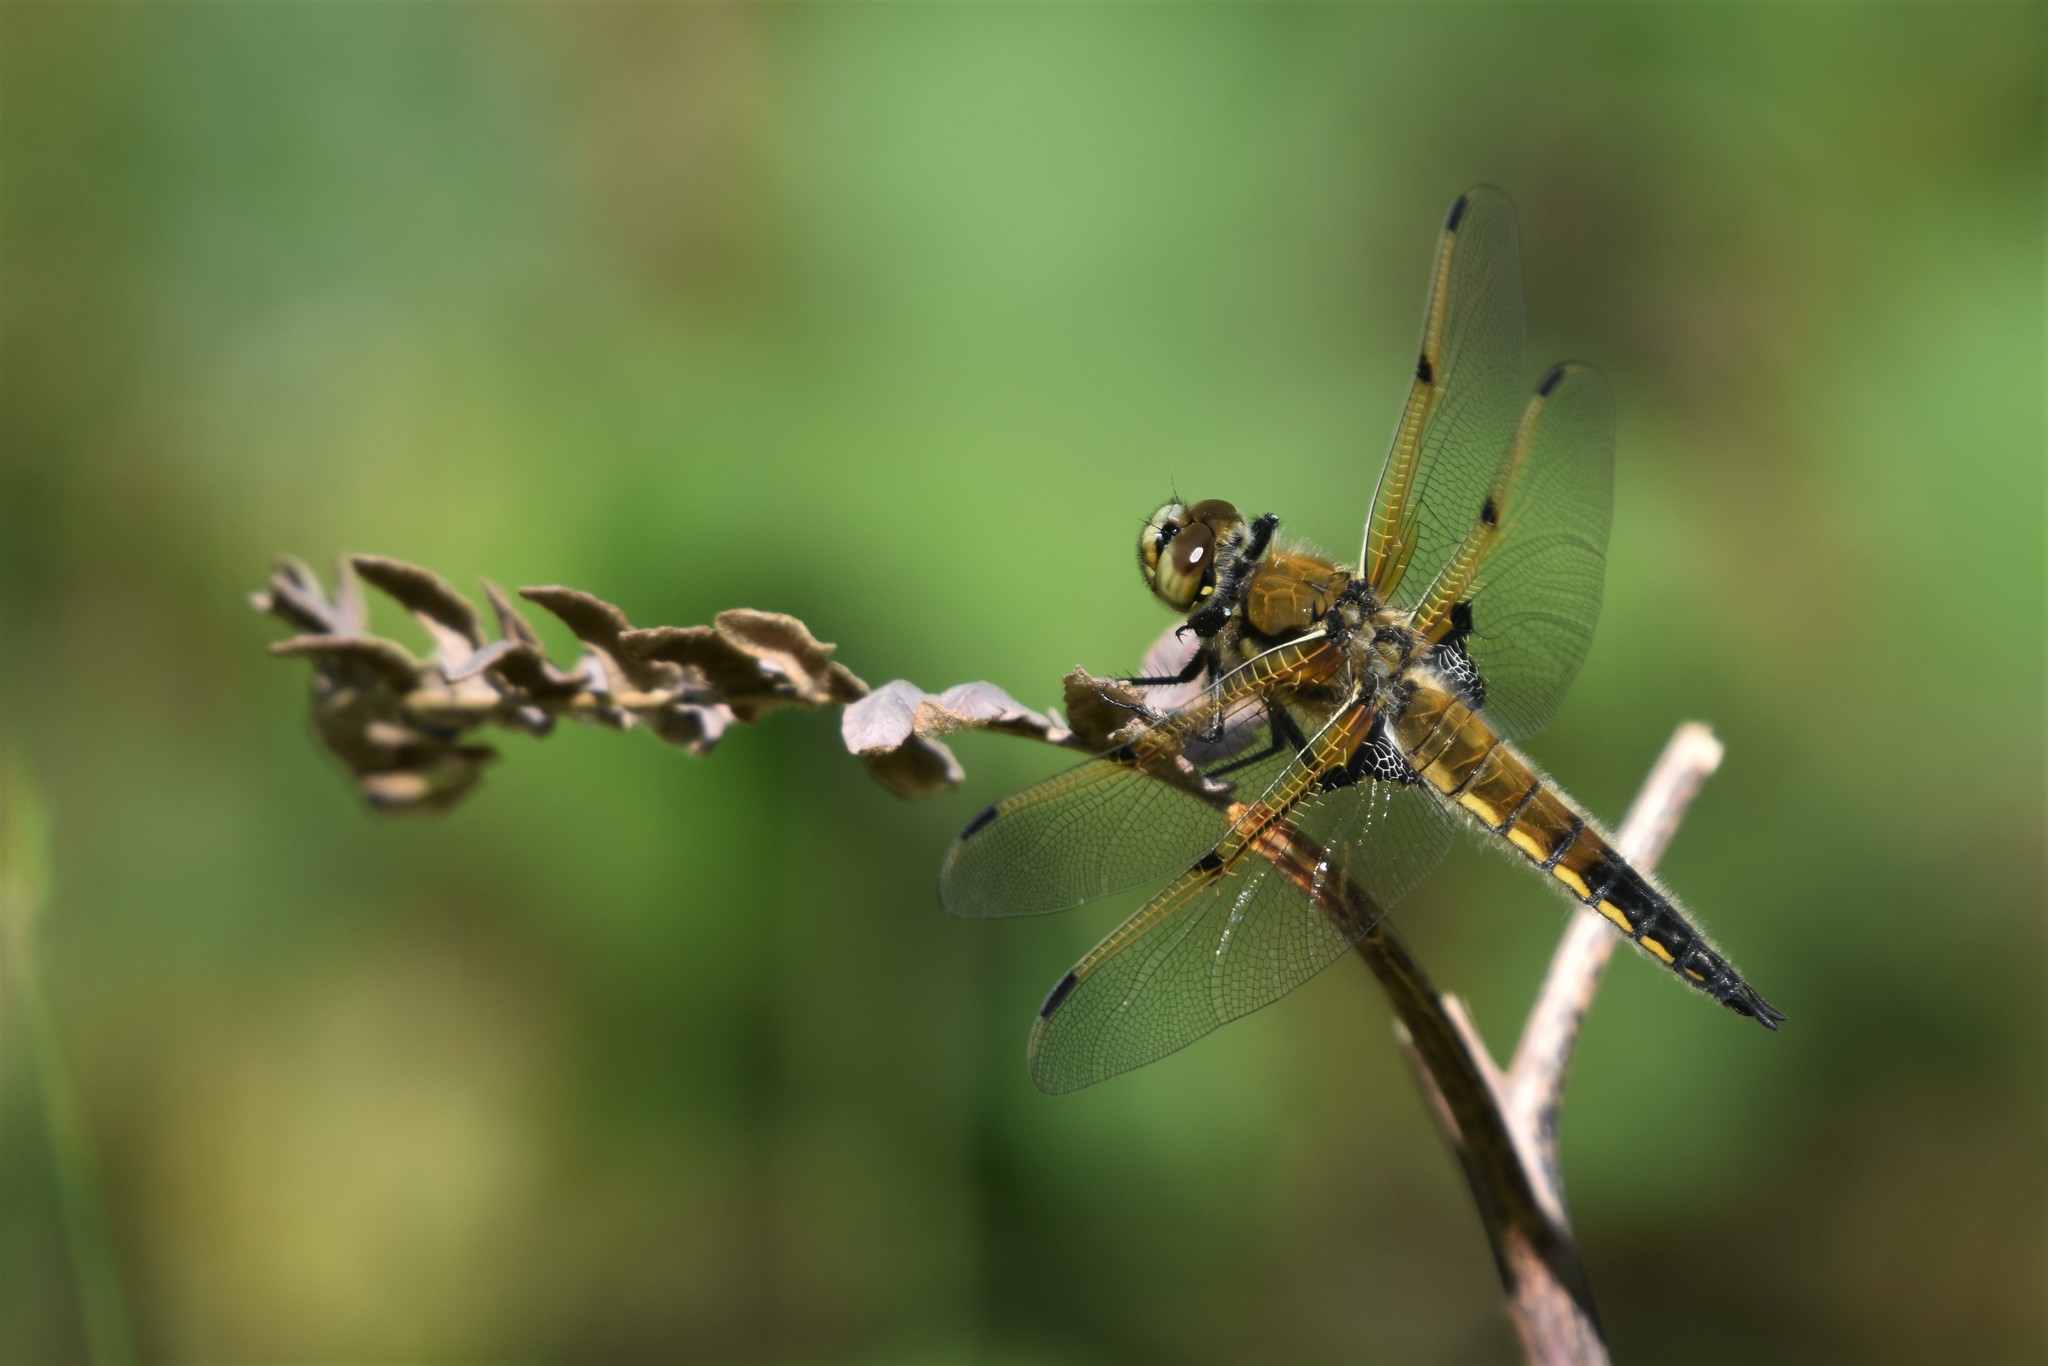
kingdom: Animalia
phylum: Arthropoda
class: Insecta
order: Odonata
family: Libellulidae
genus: Libellula
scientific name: Libellula quadrimaculata
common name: Four-spotted chaser
